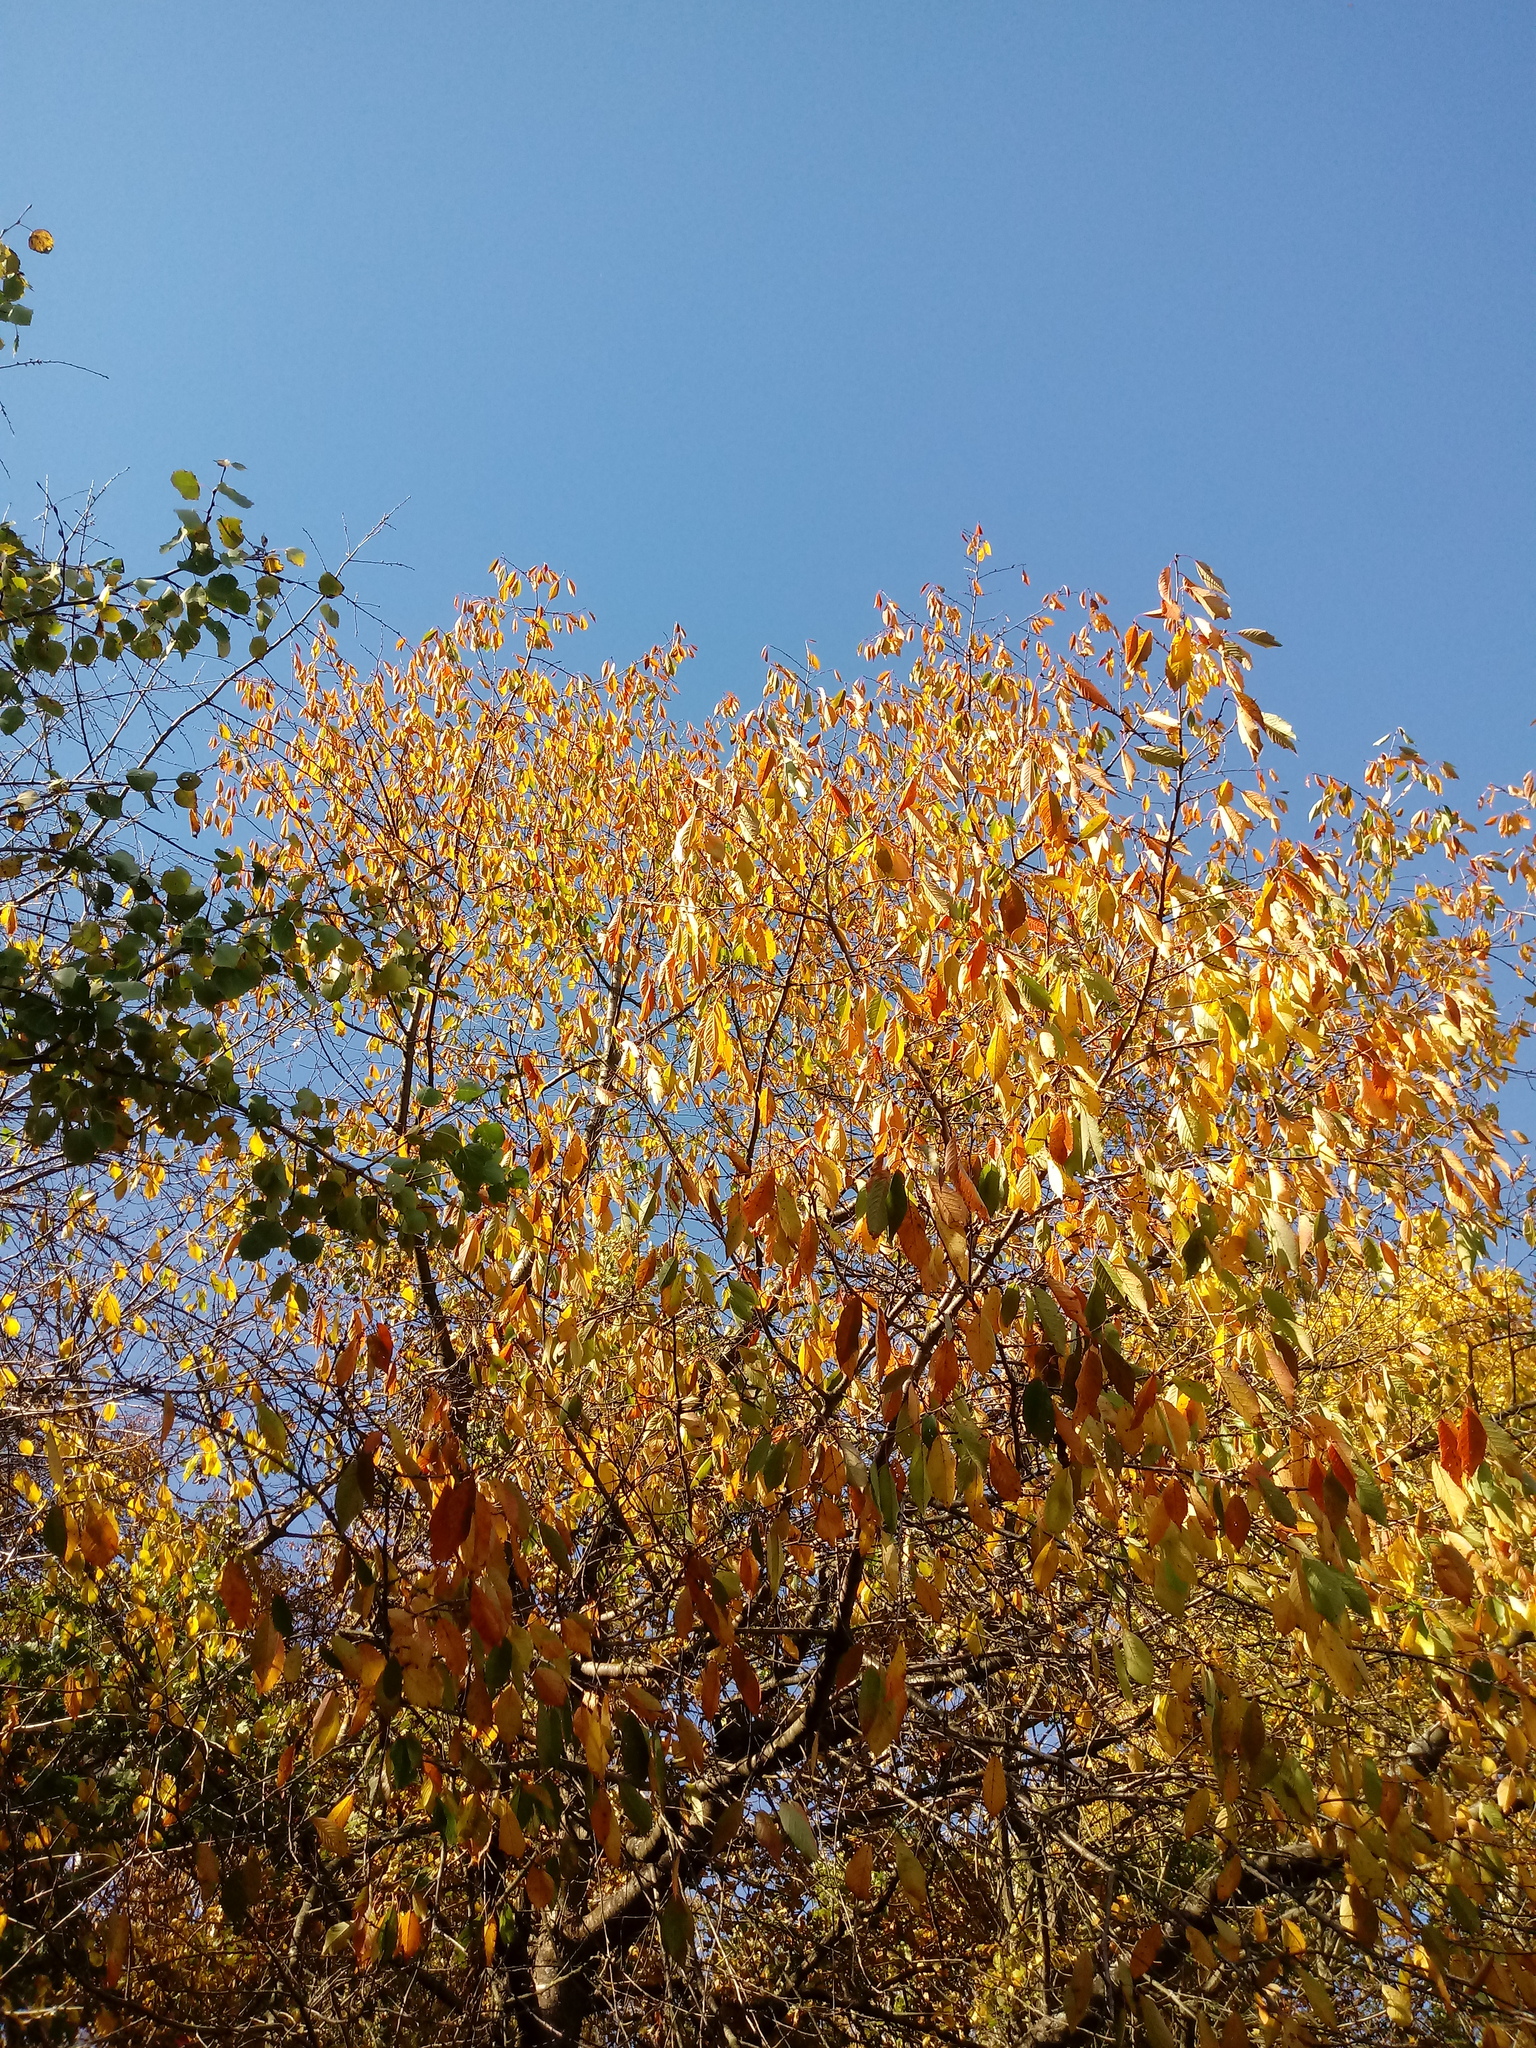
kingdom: Plantae
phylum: Tracheophyta
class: Magnoliopsida
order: Rosales
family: Rosaceae
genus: Prunus
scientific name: Prunus avium
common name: Sweet cherry
